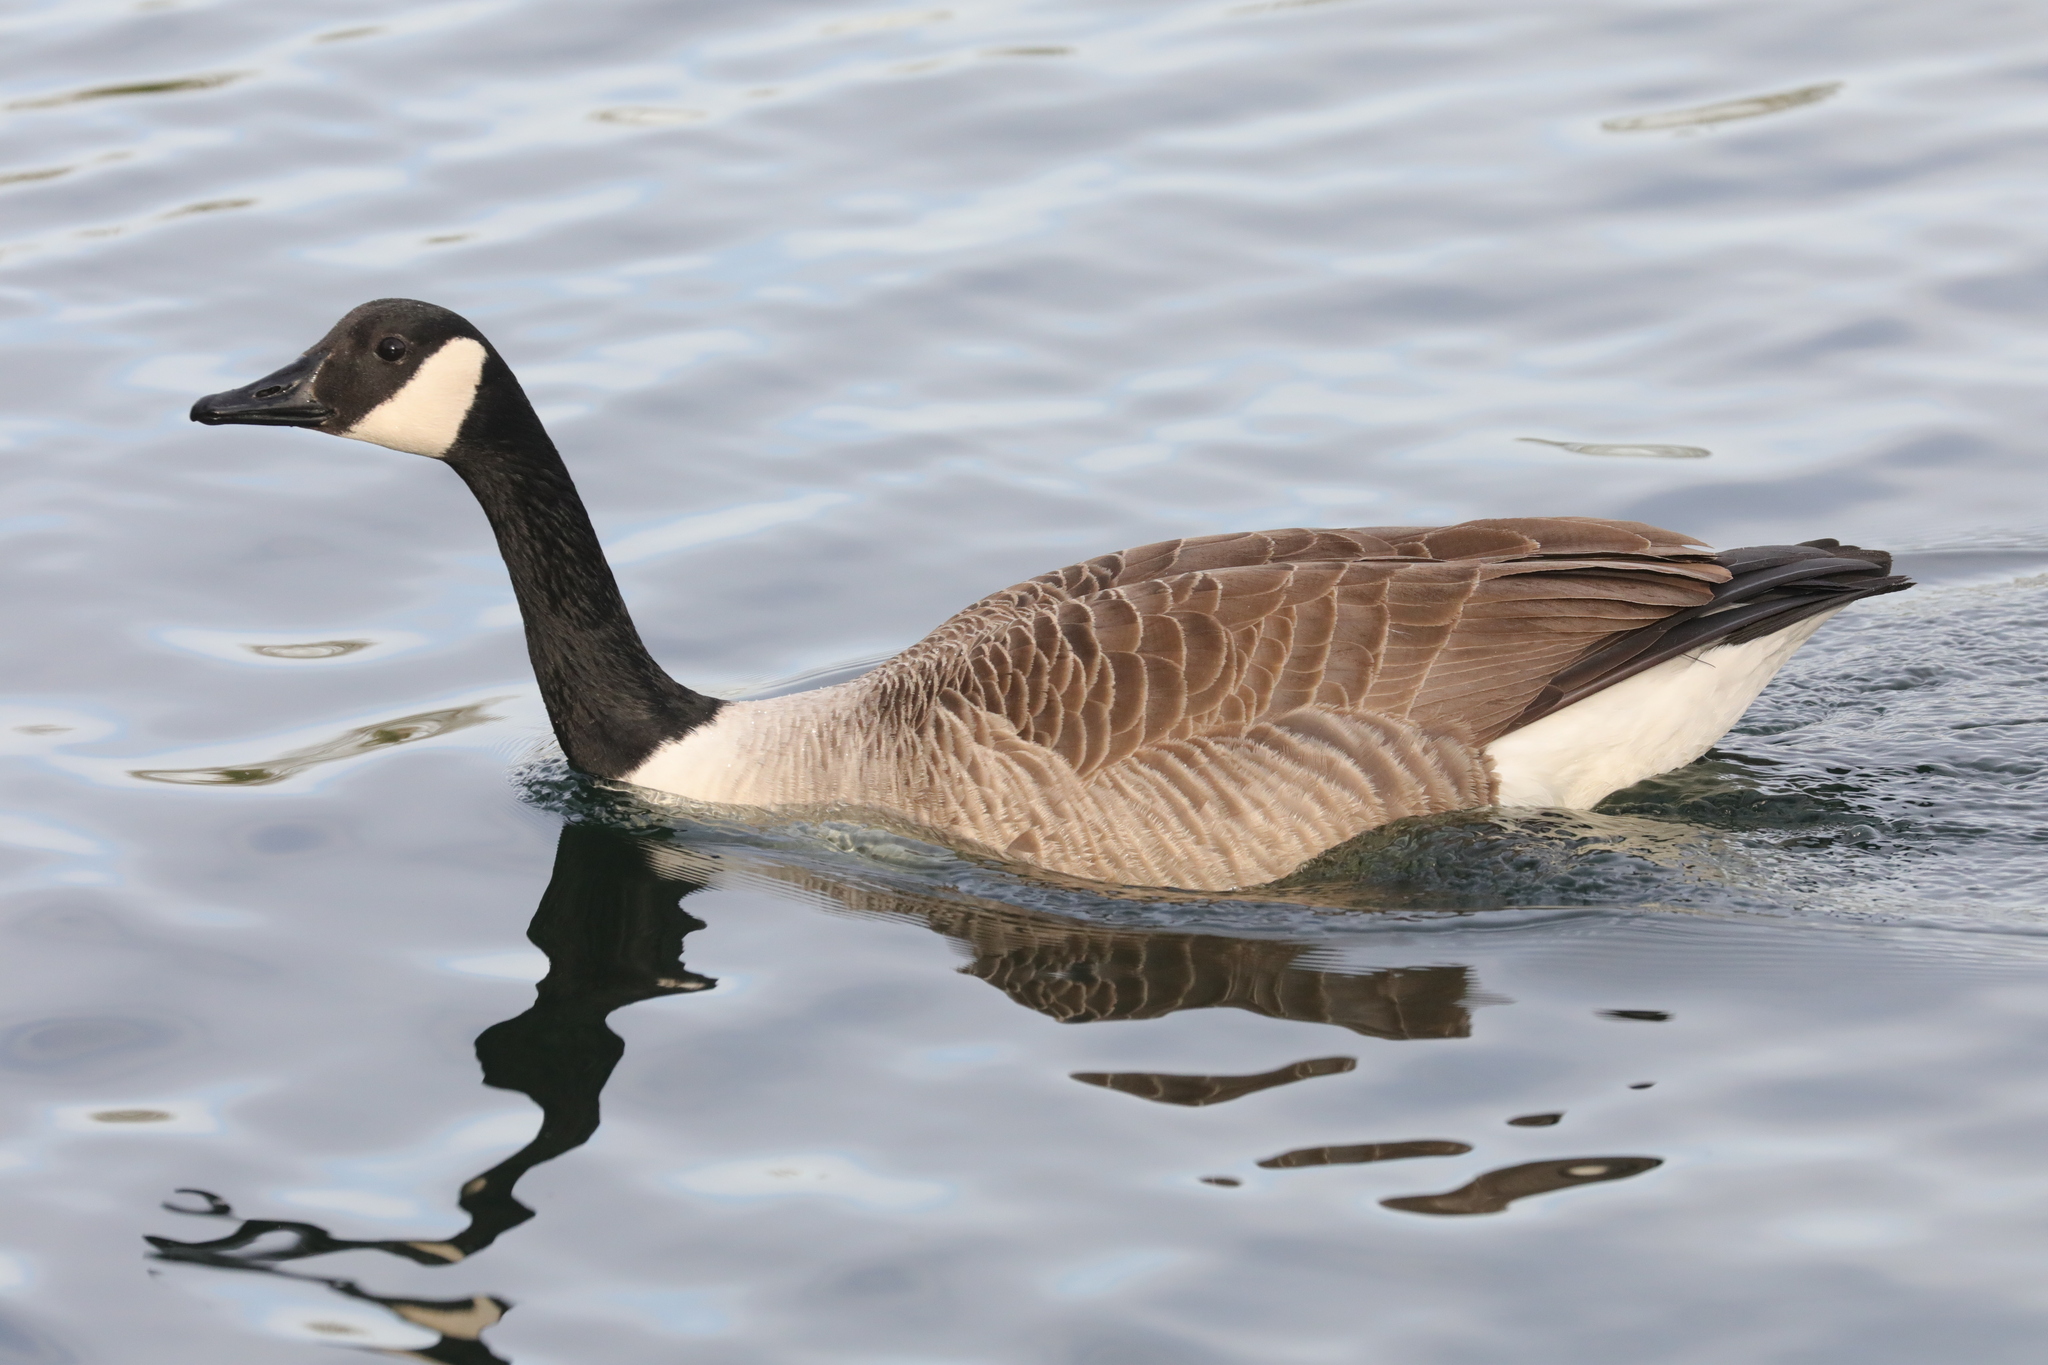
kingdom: Animalia
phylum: Chordata
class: Aves
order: Anseriformes
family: Anatidae
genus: Branta
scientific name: Branta canadensis
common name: Canada goose
